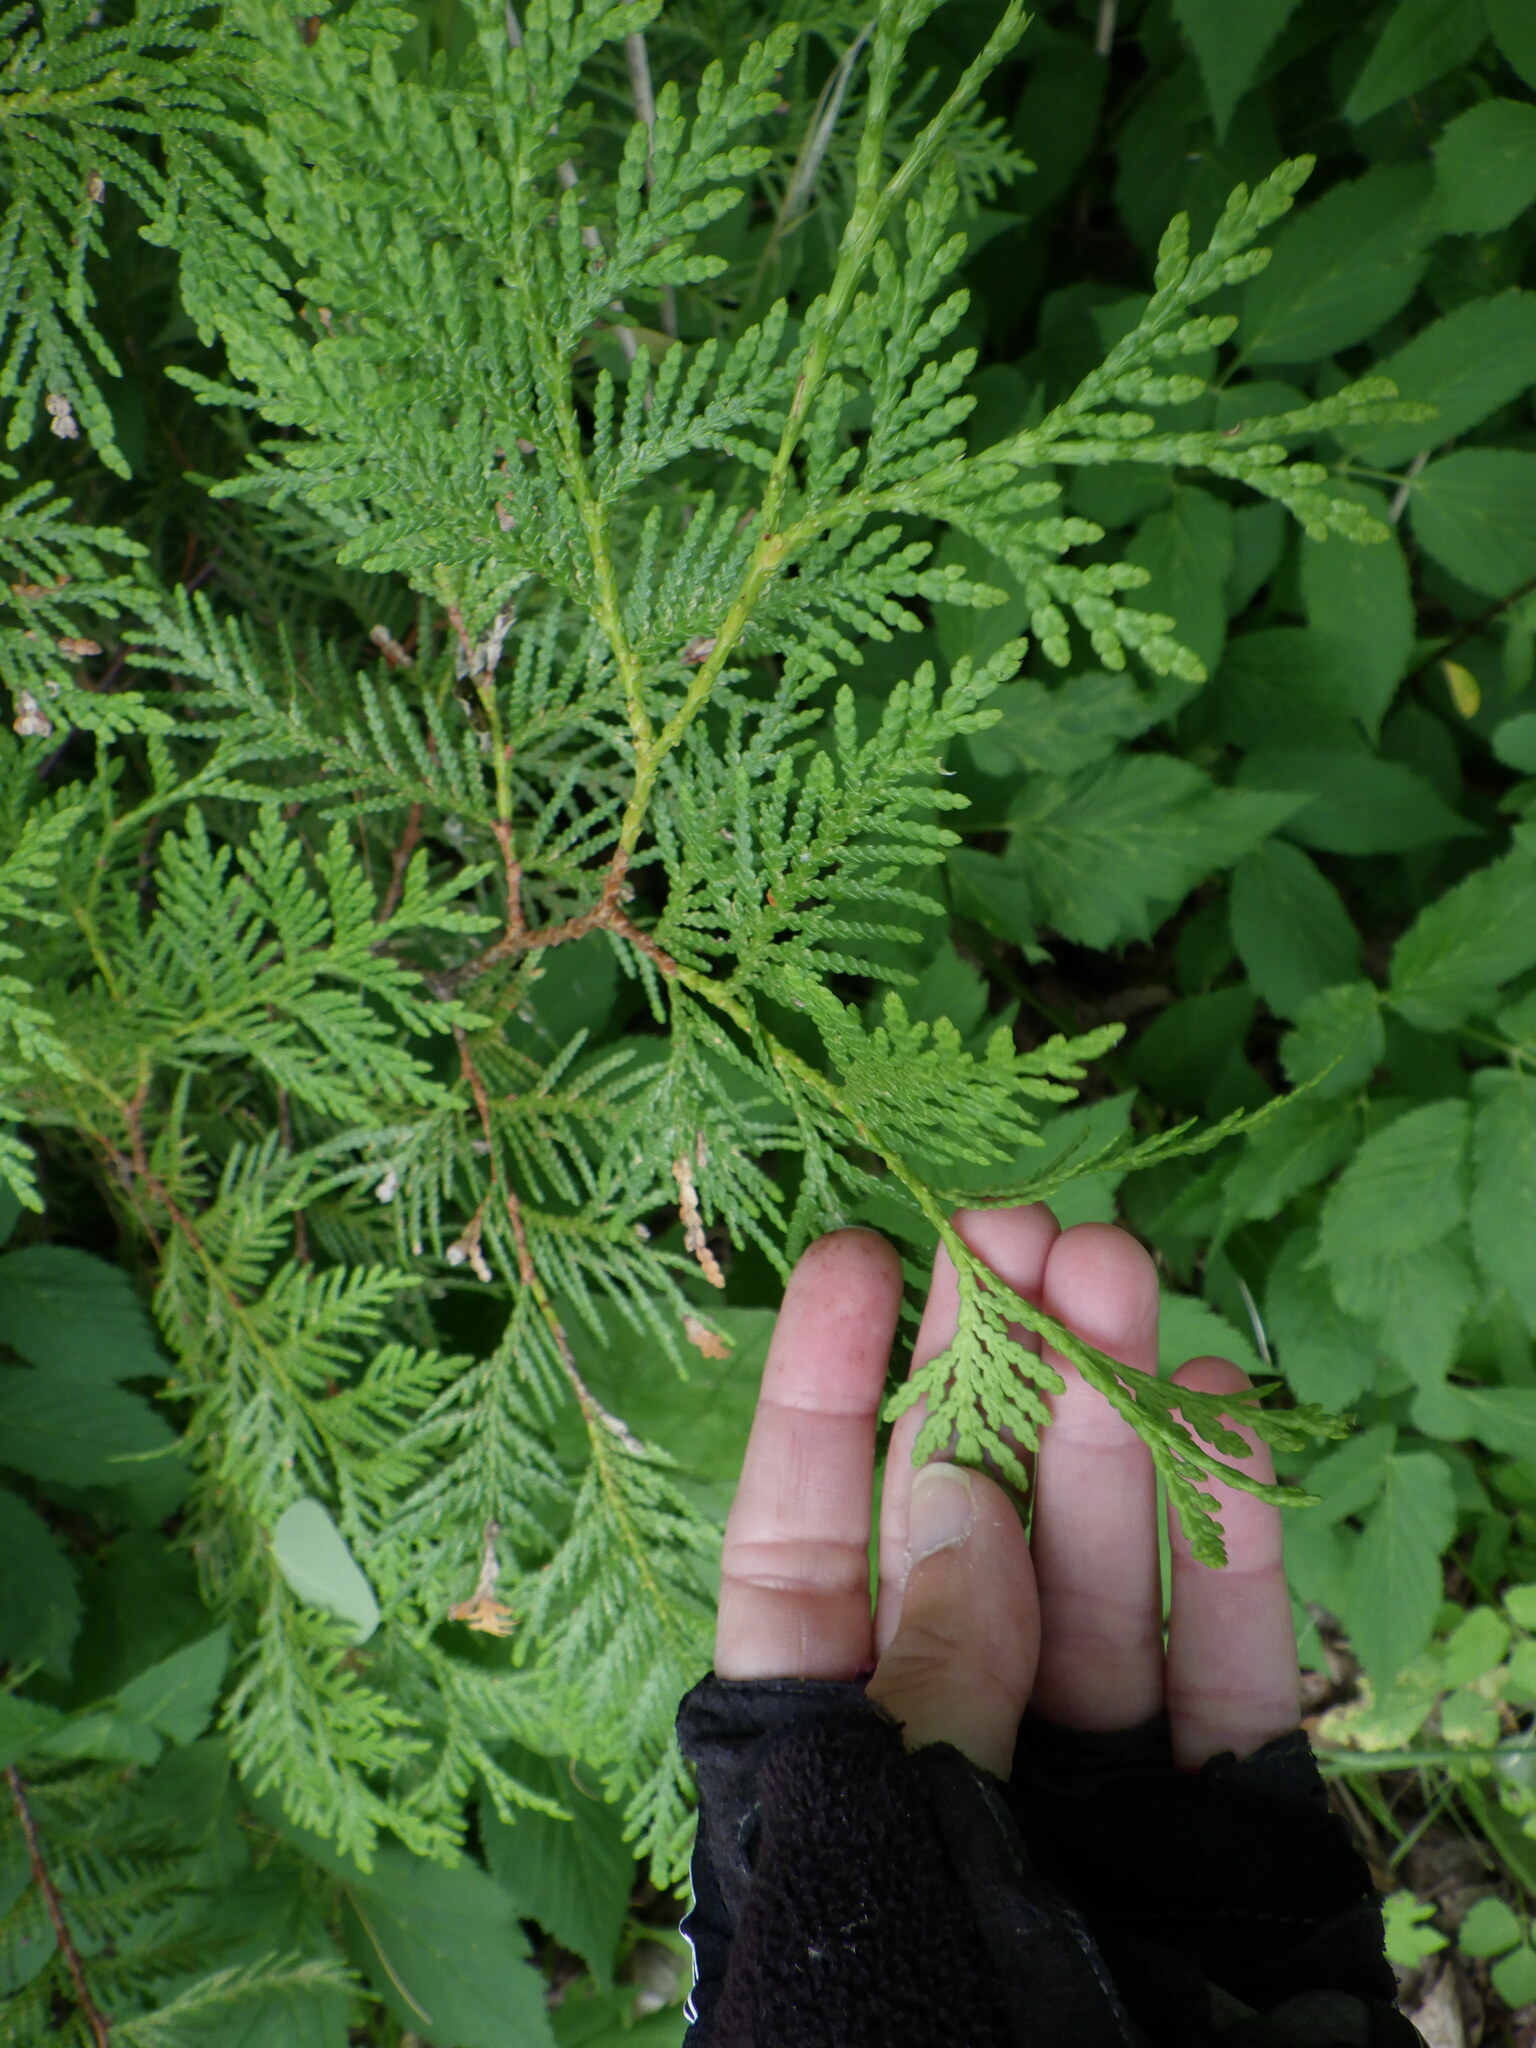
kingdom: Plantae
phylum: Tracheophyta
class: Pinopsida
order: Pinales
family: Cupressaceae
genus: Thuja
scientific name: Thuja occidentalis
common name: Northern white-cedar
